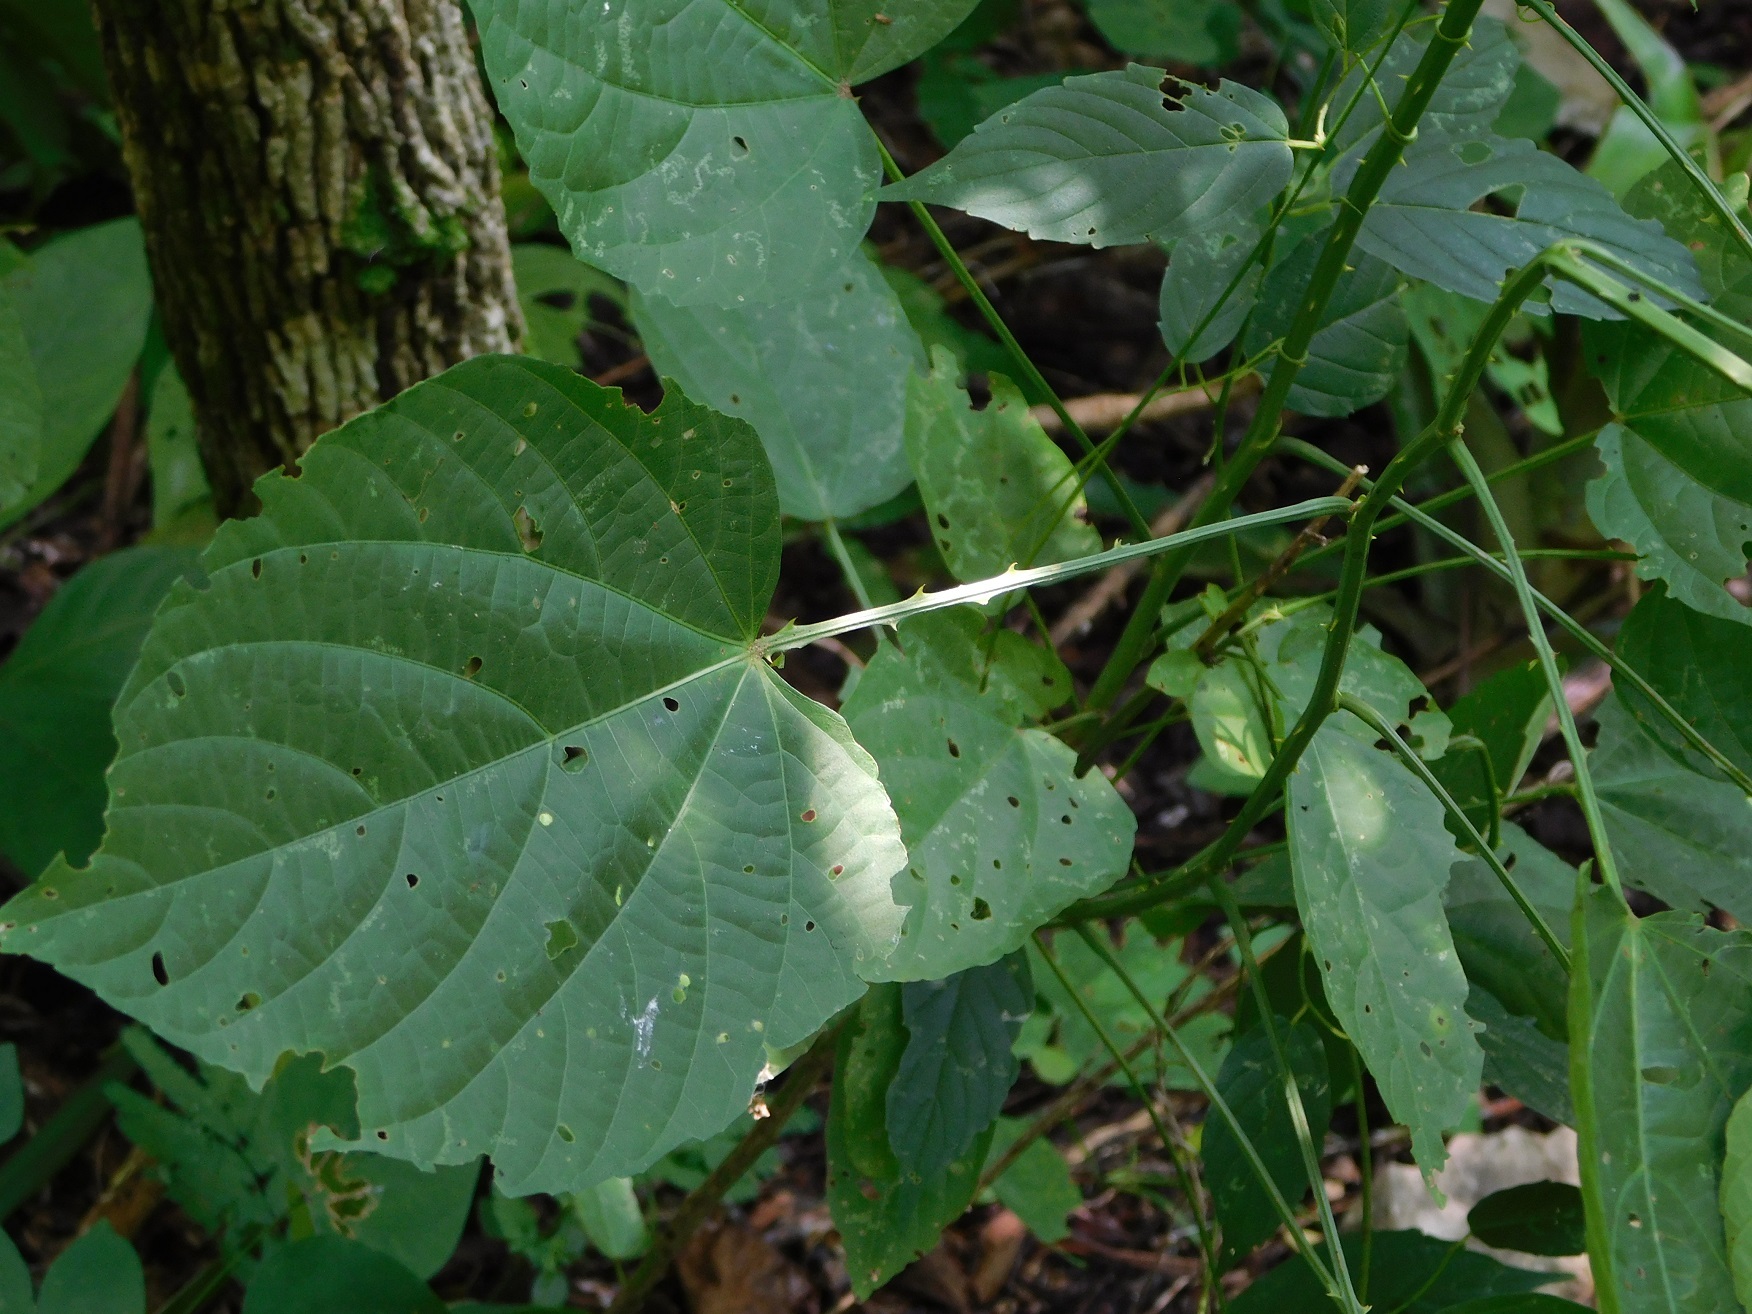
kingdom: Plantae
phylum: Tracheophyta
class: Magnoliopsida
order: Malvales
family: Malvaceae
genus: Byttneria
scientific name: Byttneria aculeata
